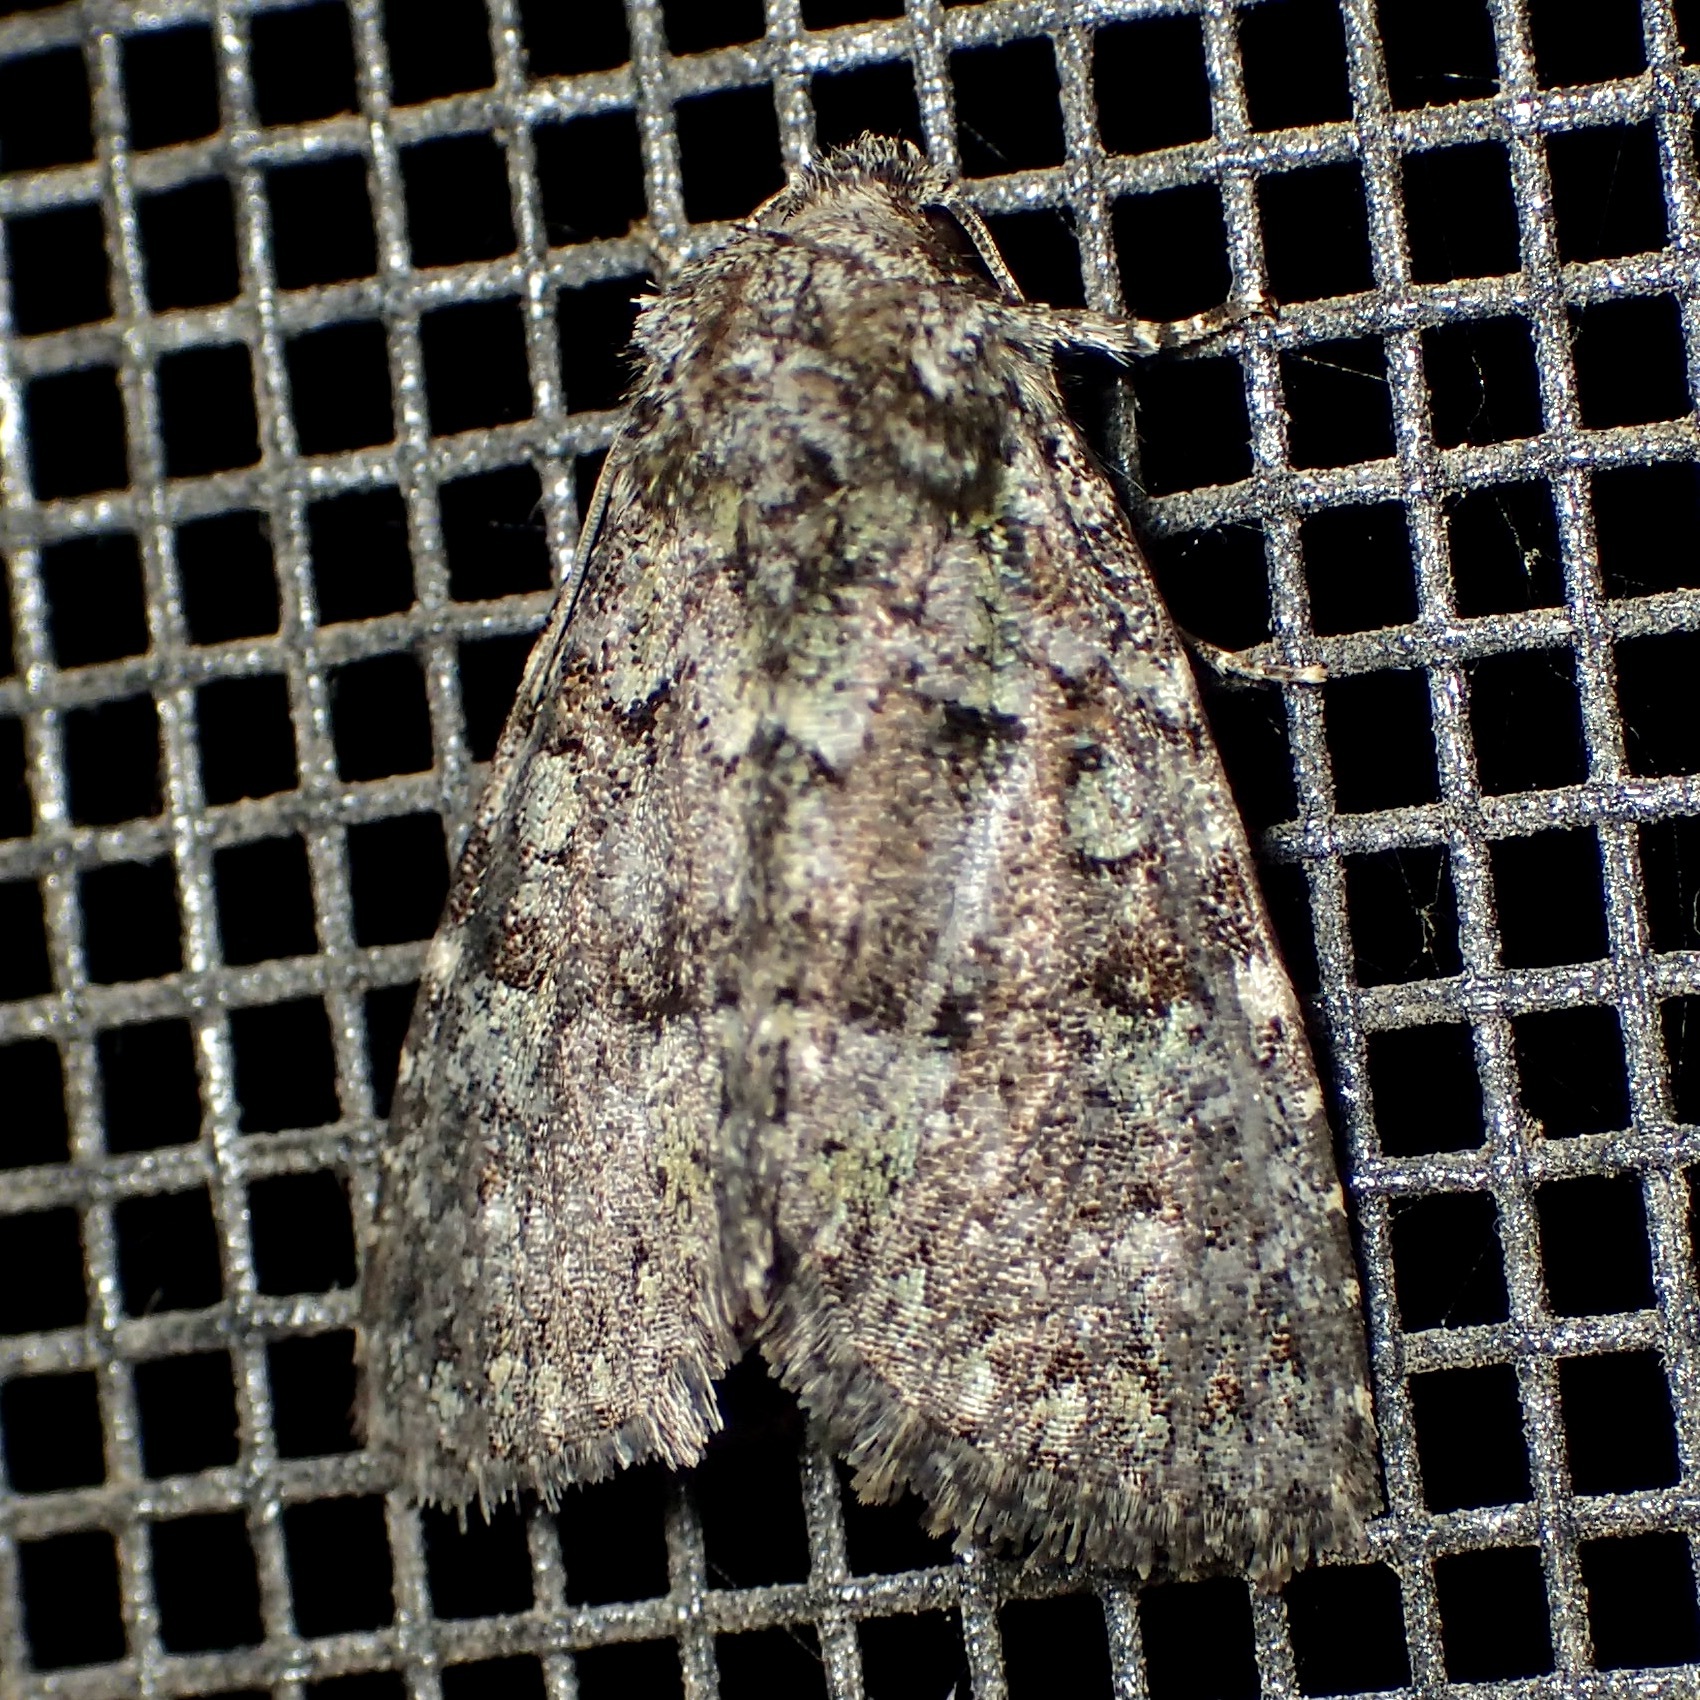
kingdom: Animalia
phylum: Arthropoda
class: Insecta
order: Lepidoptera
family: Noctuidae
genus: Paramiana
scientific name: Paramiana smaragdina
